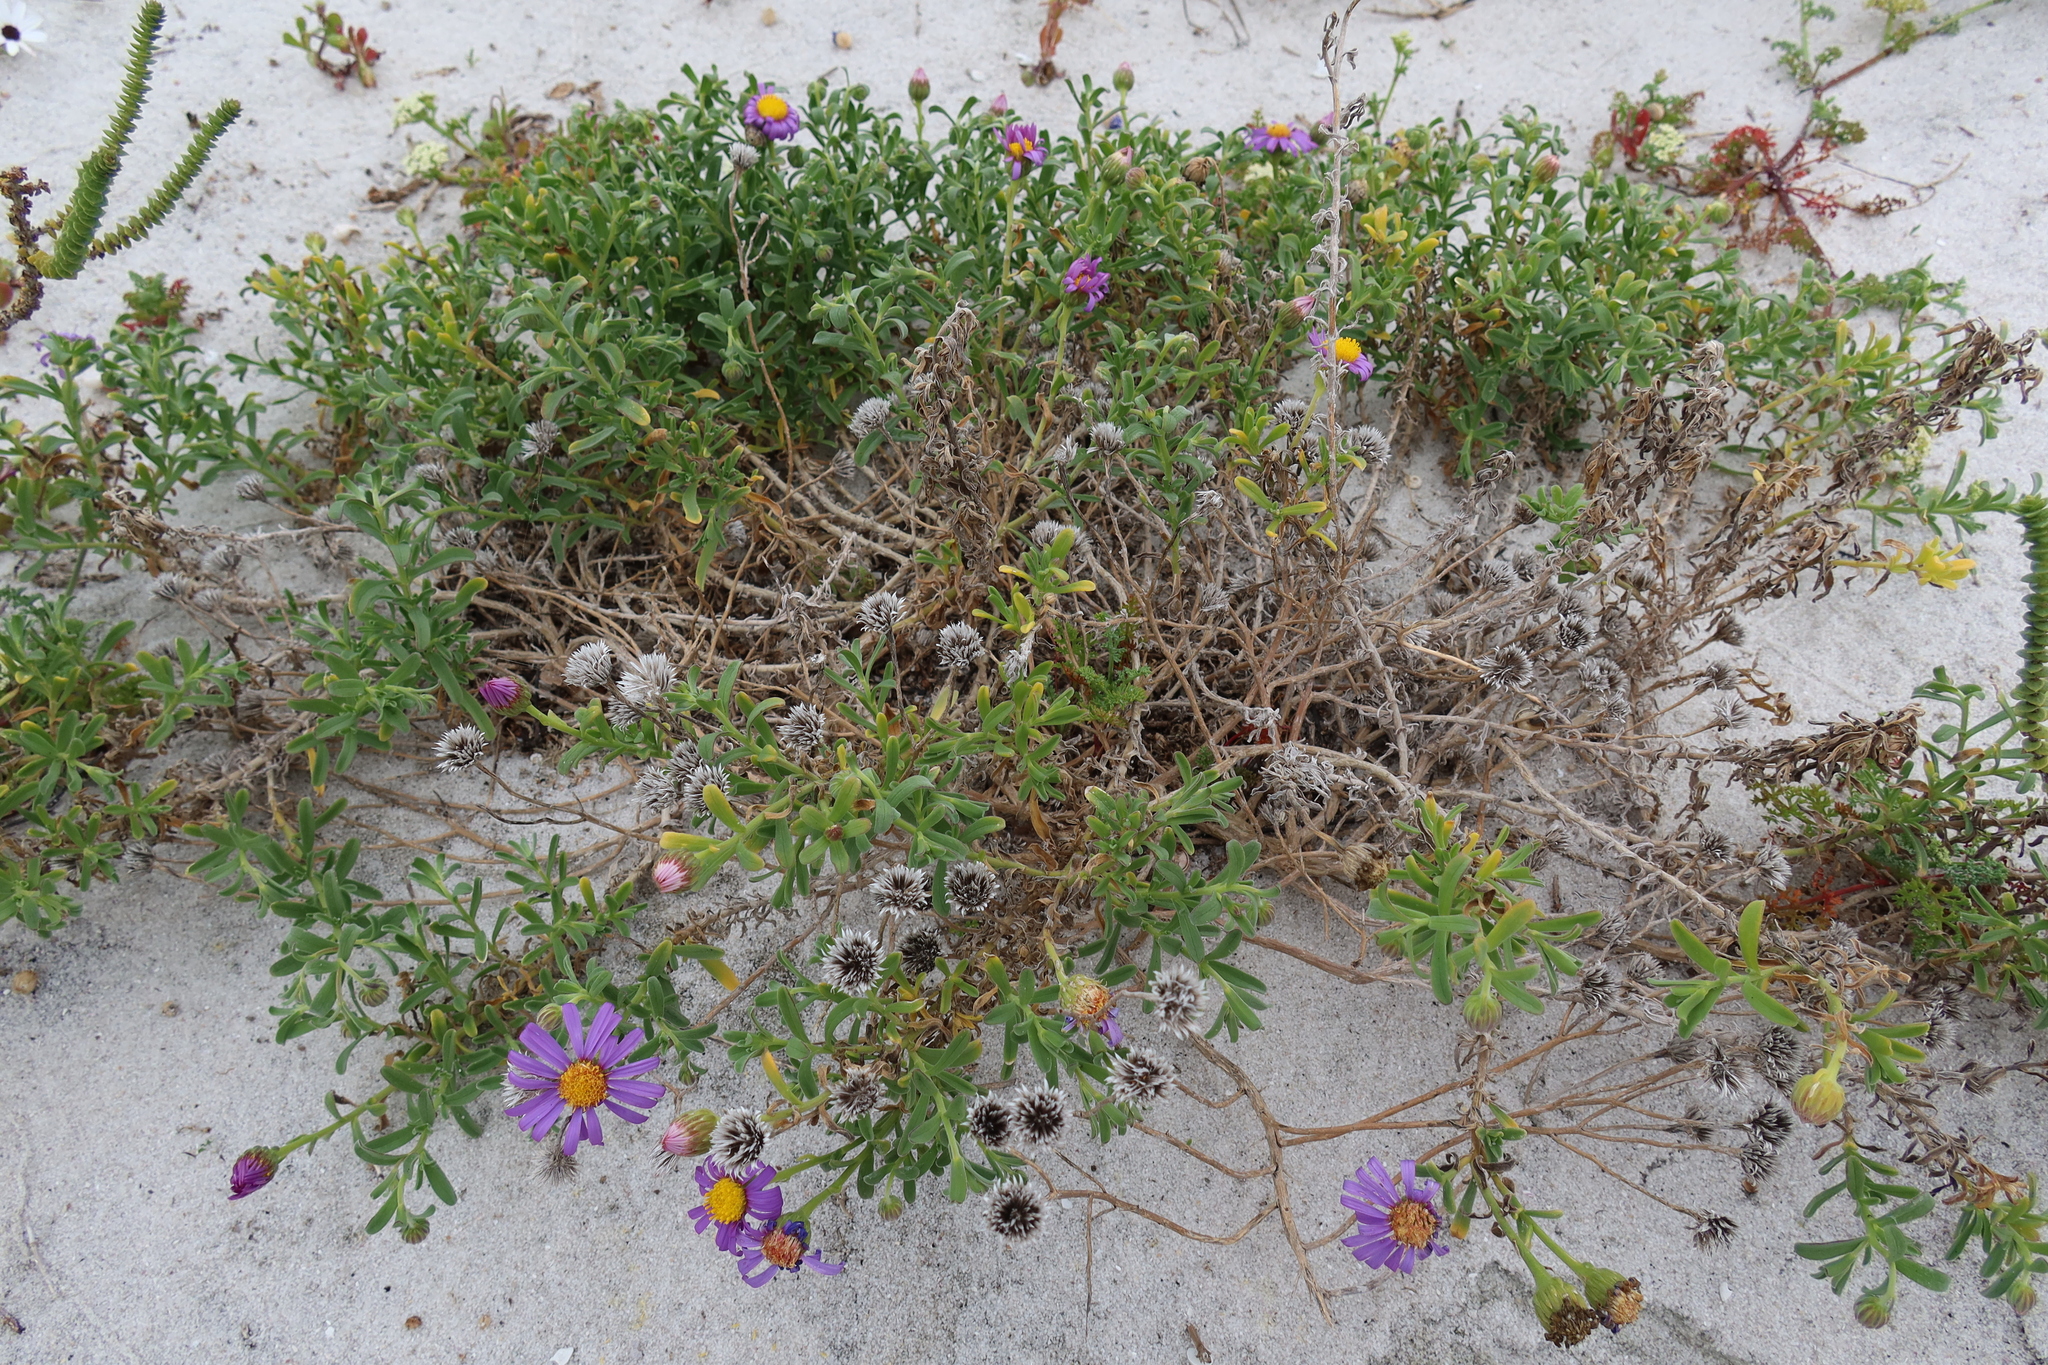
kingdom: Plantae
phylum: Tracheophyta
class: Magnoliopsida
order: Asterales
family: Asteraceae
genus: Amellus
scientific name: Amellus asteroides
